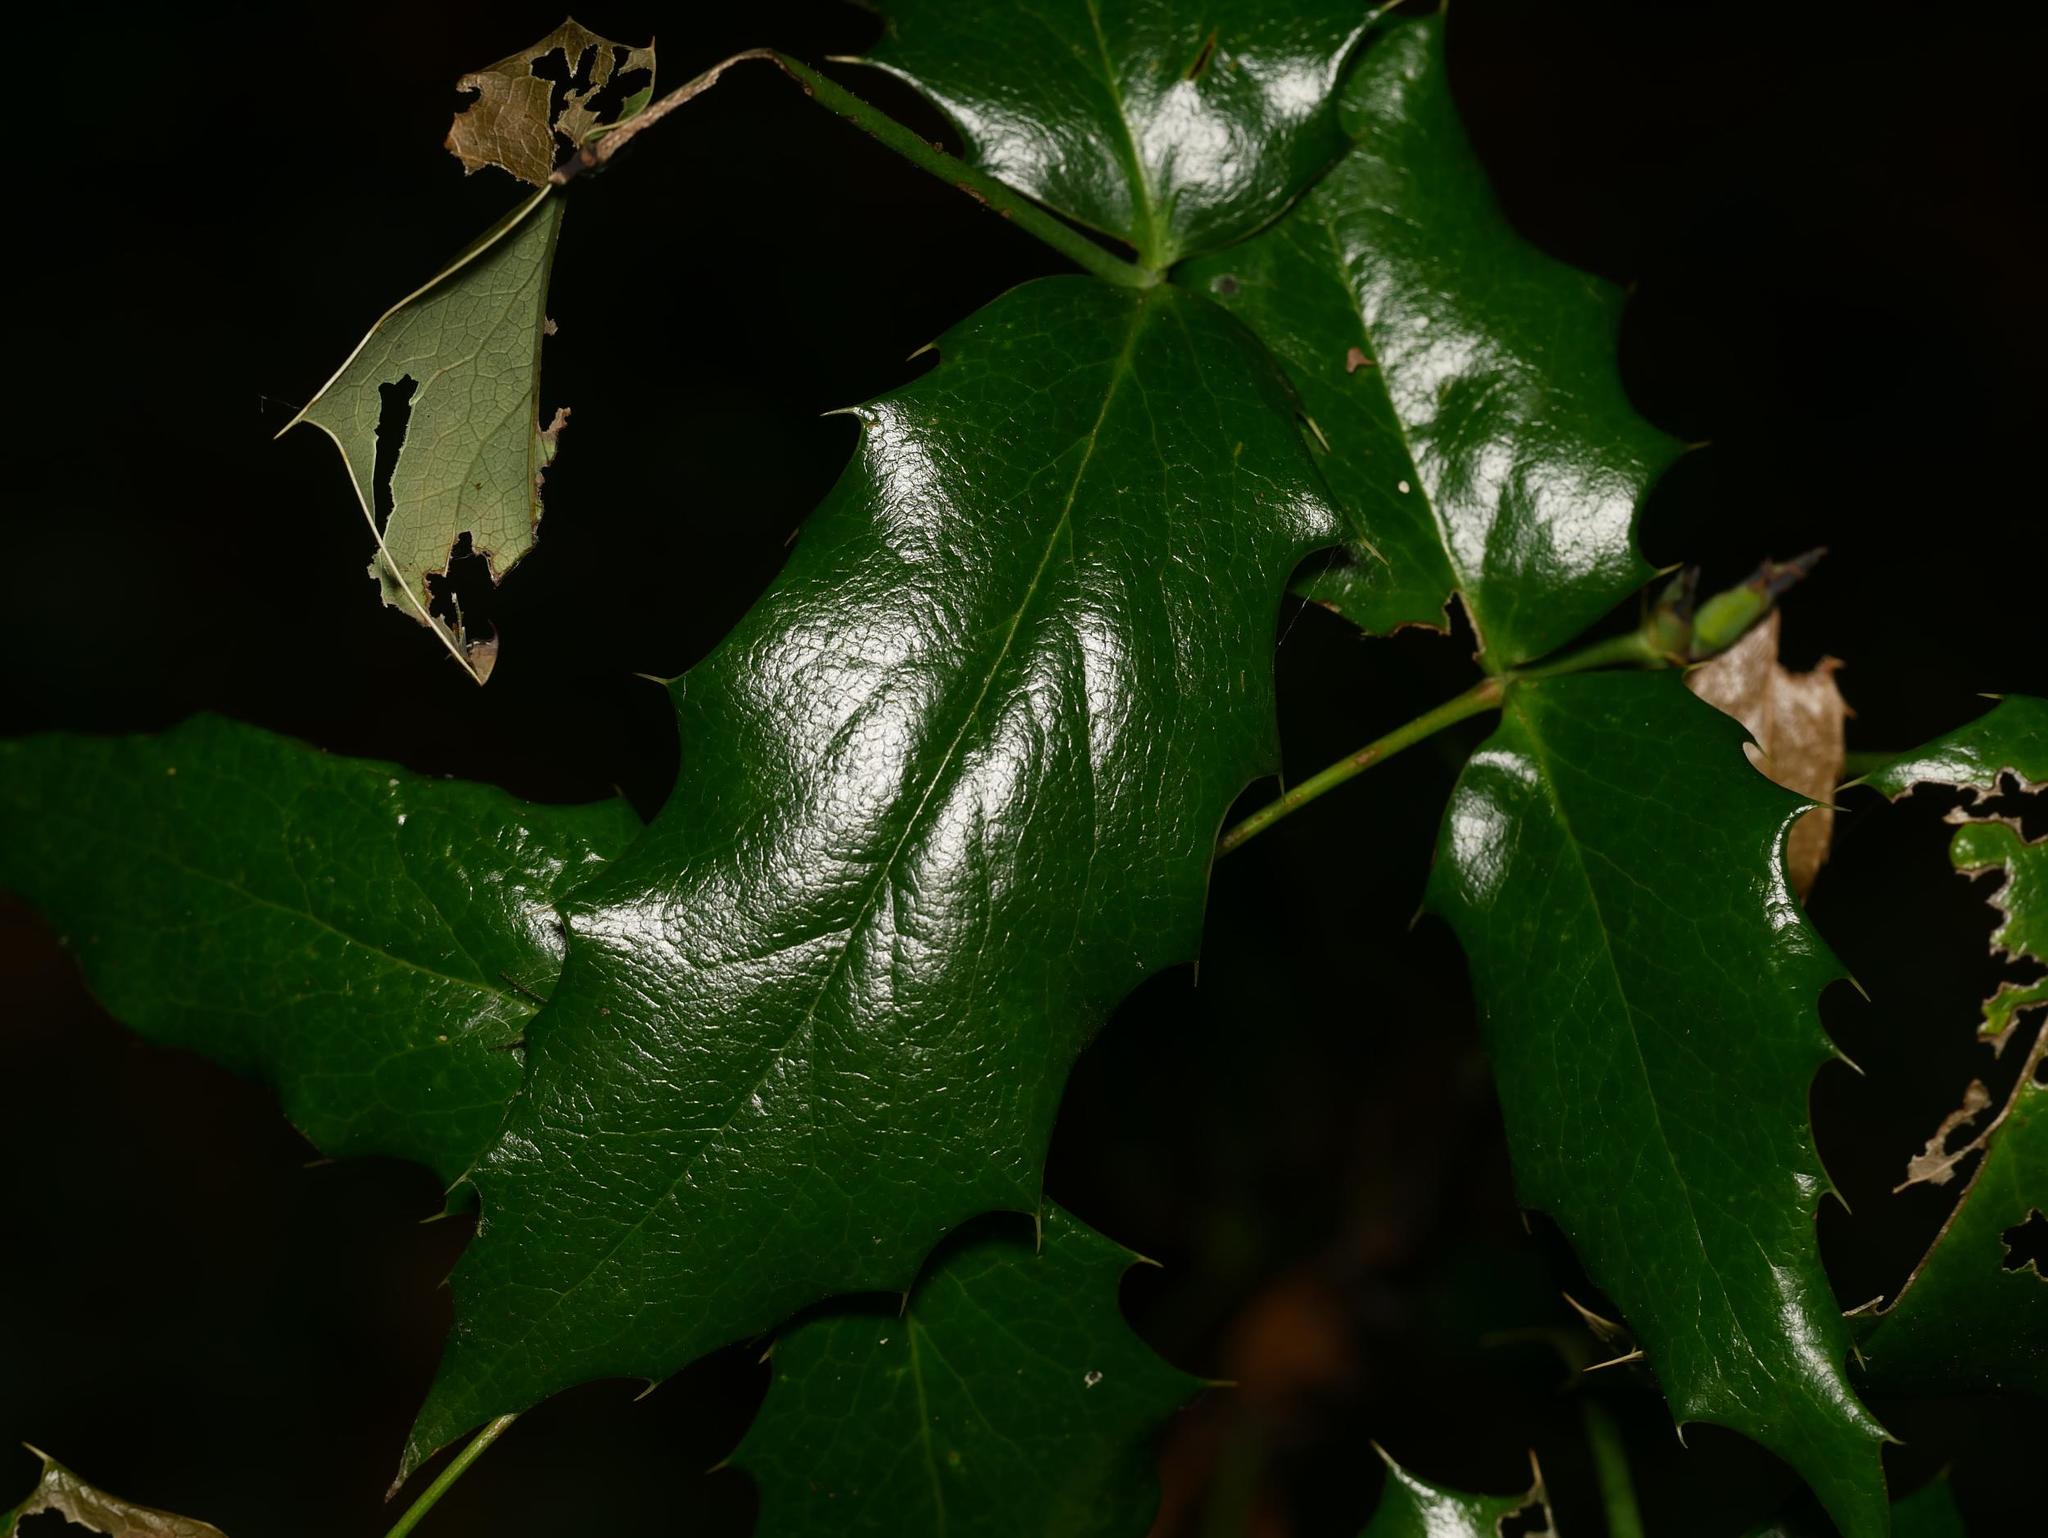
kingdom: Plantae
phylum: Tracheophyta
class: Magnoliopsida
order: Ranunculales
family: Berberidaceae
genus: Mahonia
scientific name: Mahonia aquifolium
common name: Oregon-grape
